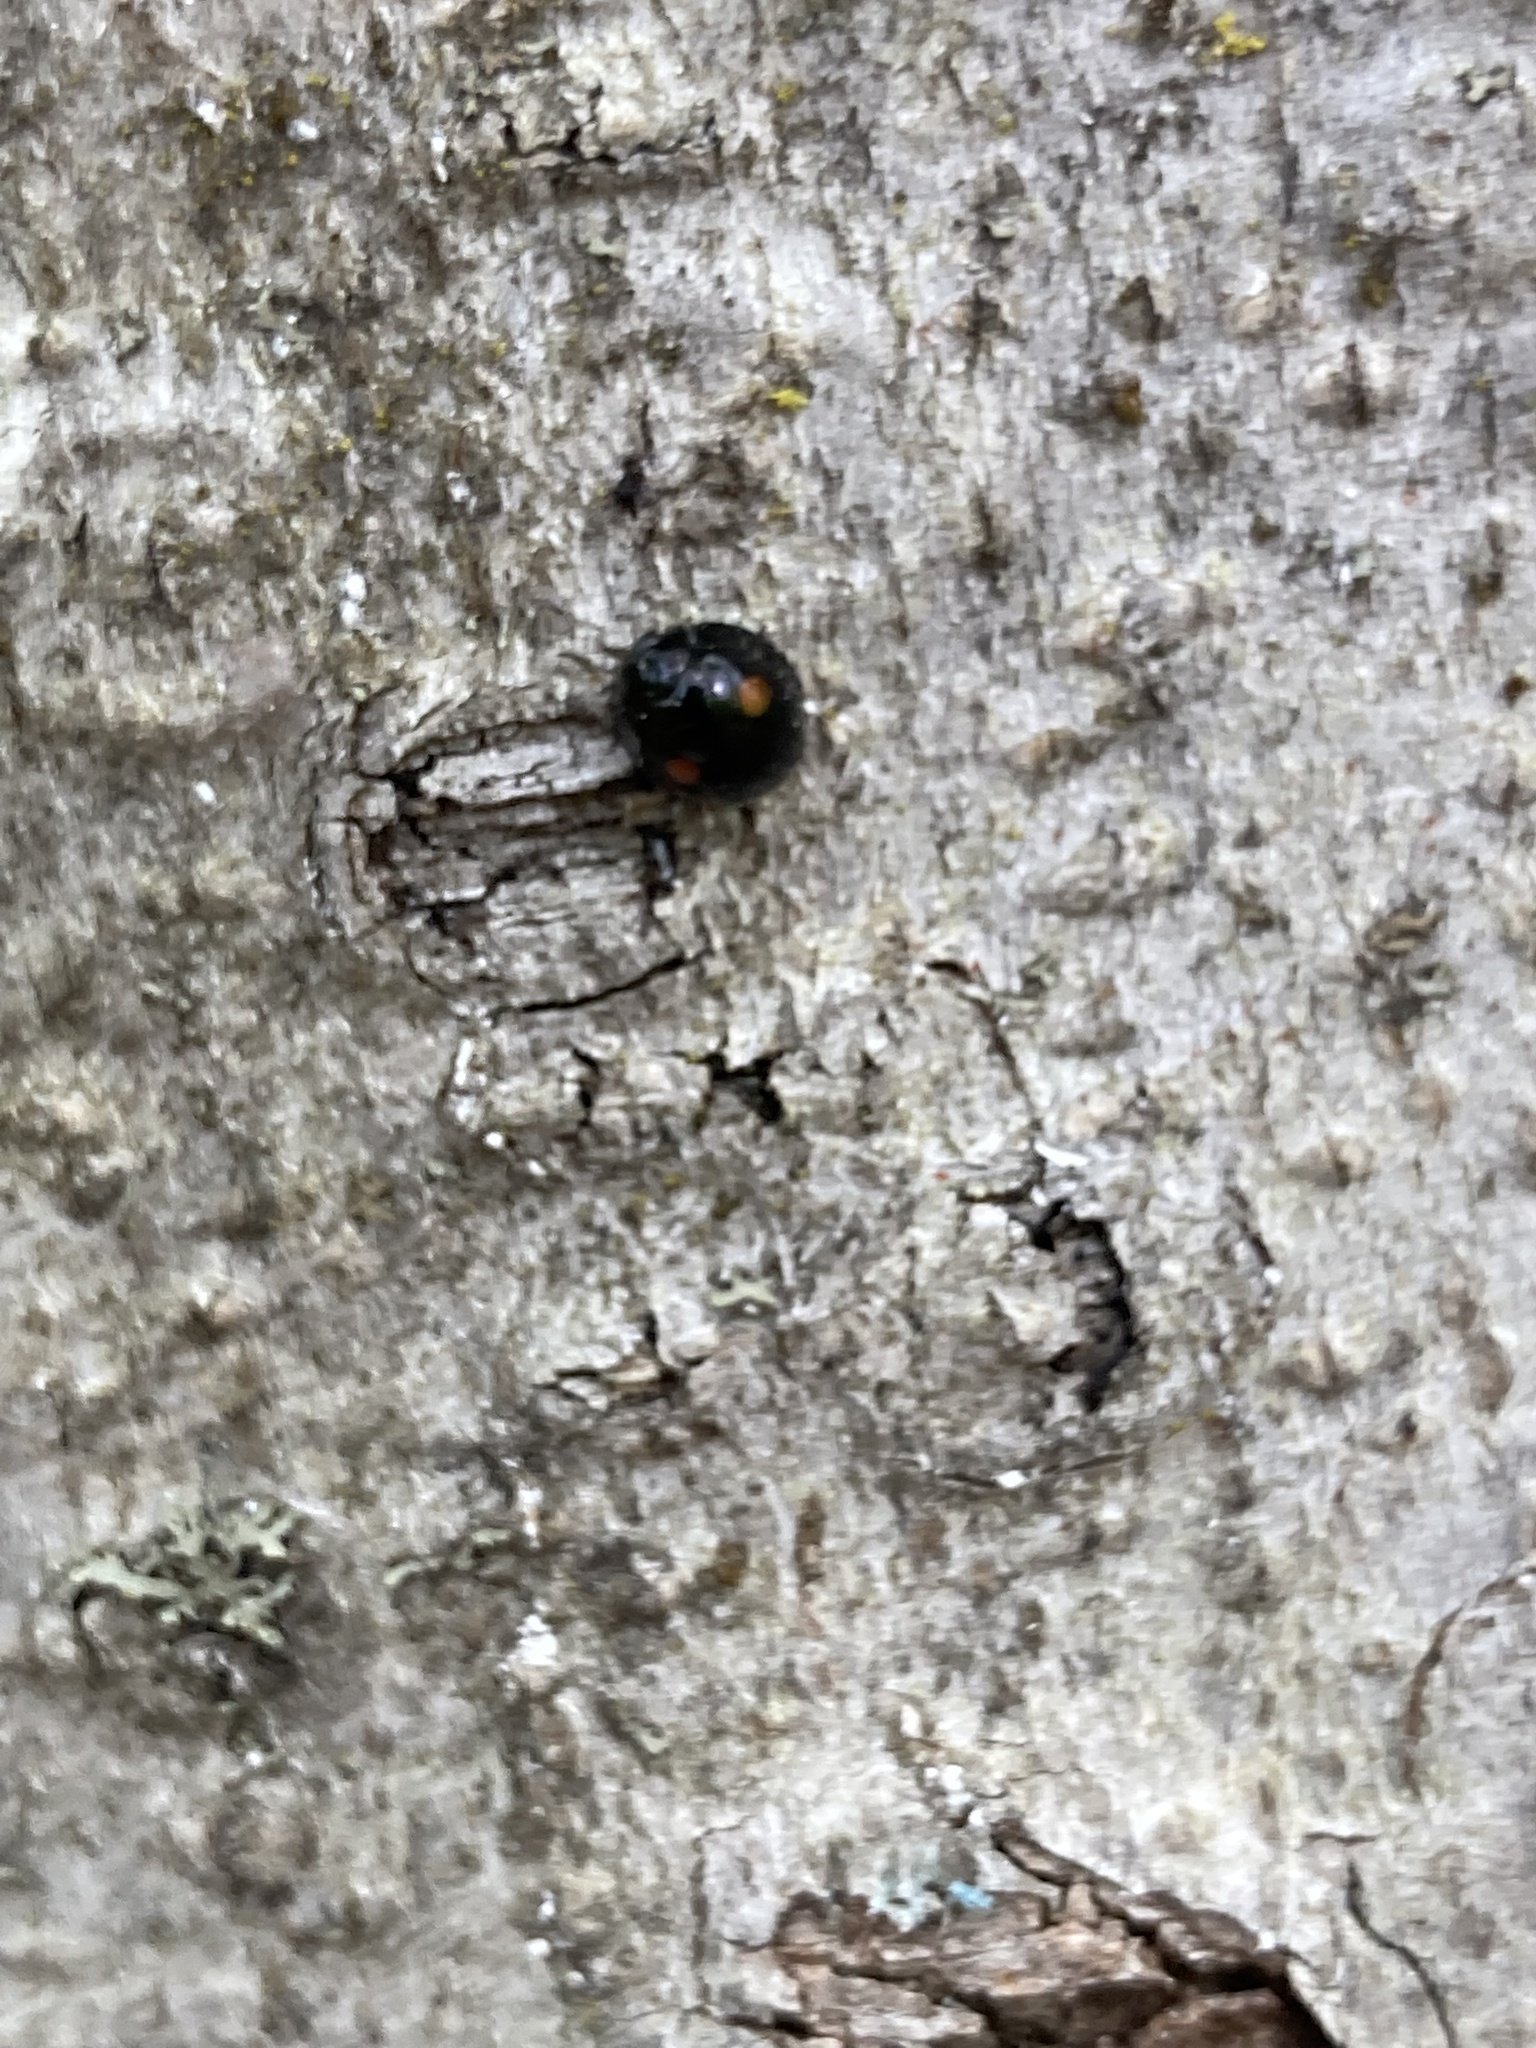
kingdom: Animalia
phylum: Arthropoda
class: Insecta
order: Coleoptera
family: Coccinellidae
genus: Chilocorus
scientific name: Chilocorus stigma
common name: Twicestabbed lady beetle
